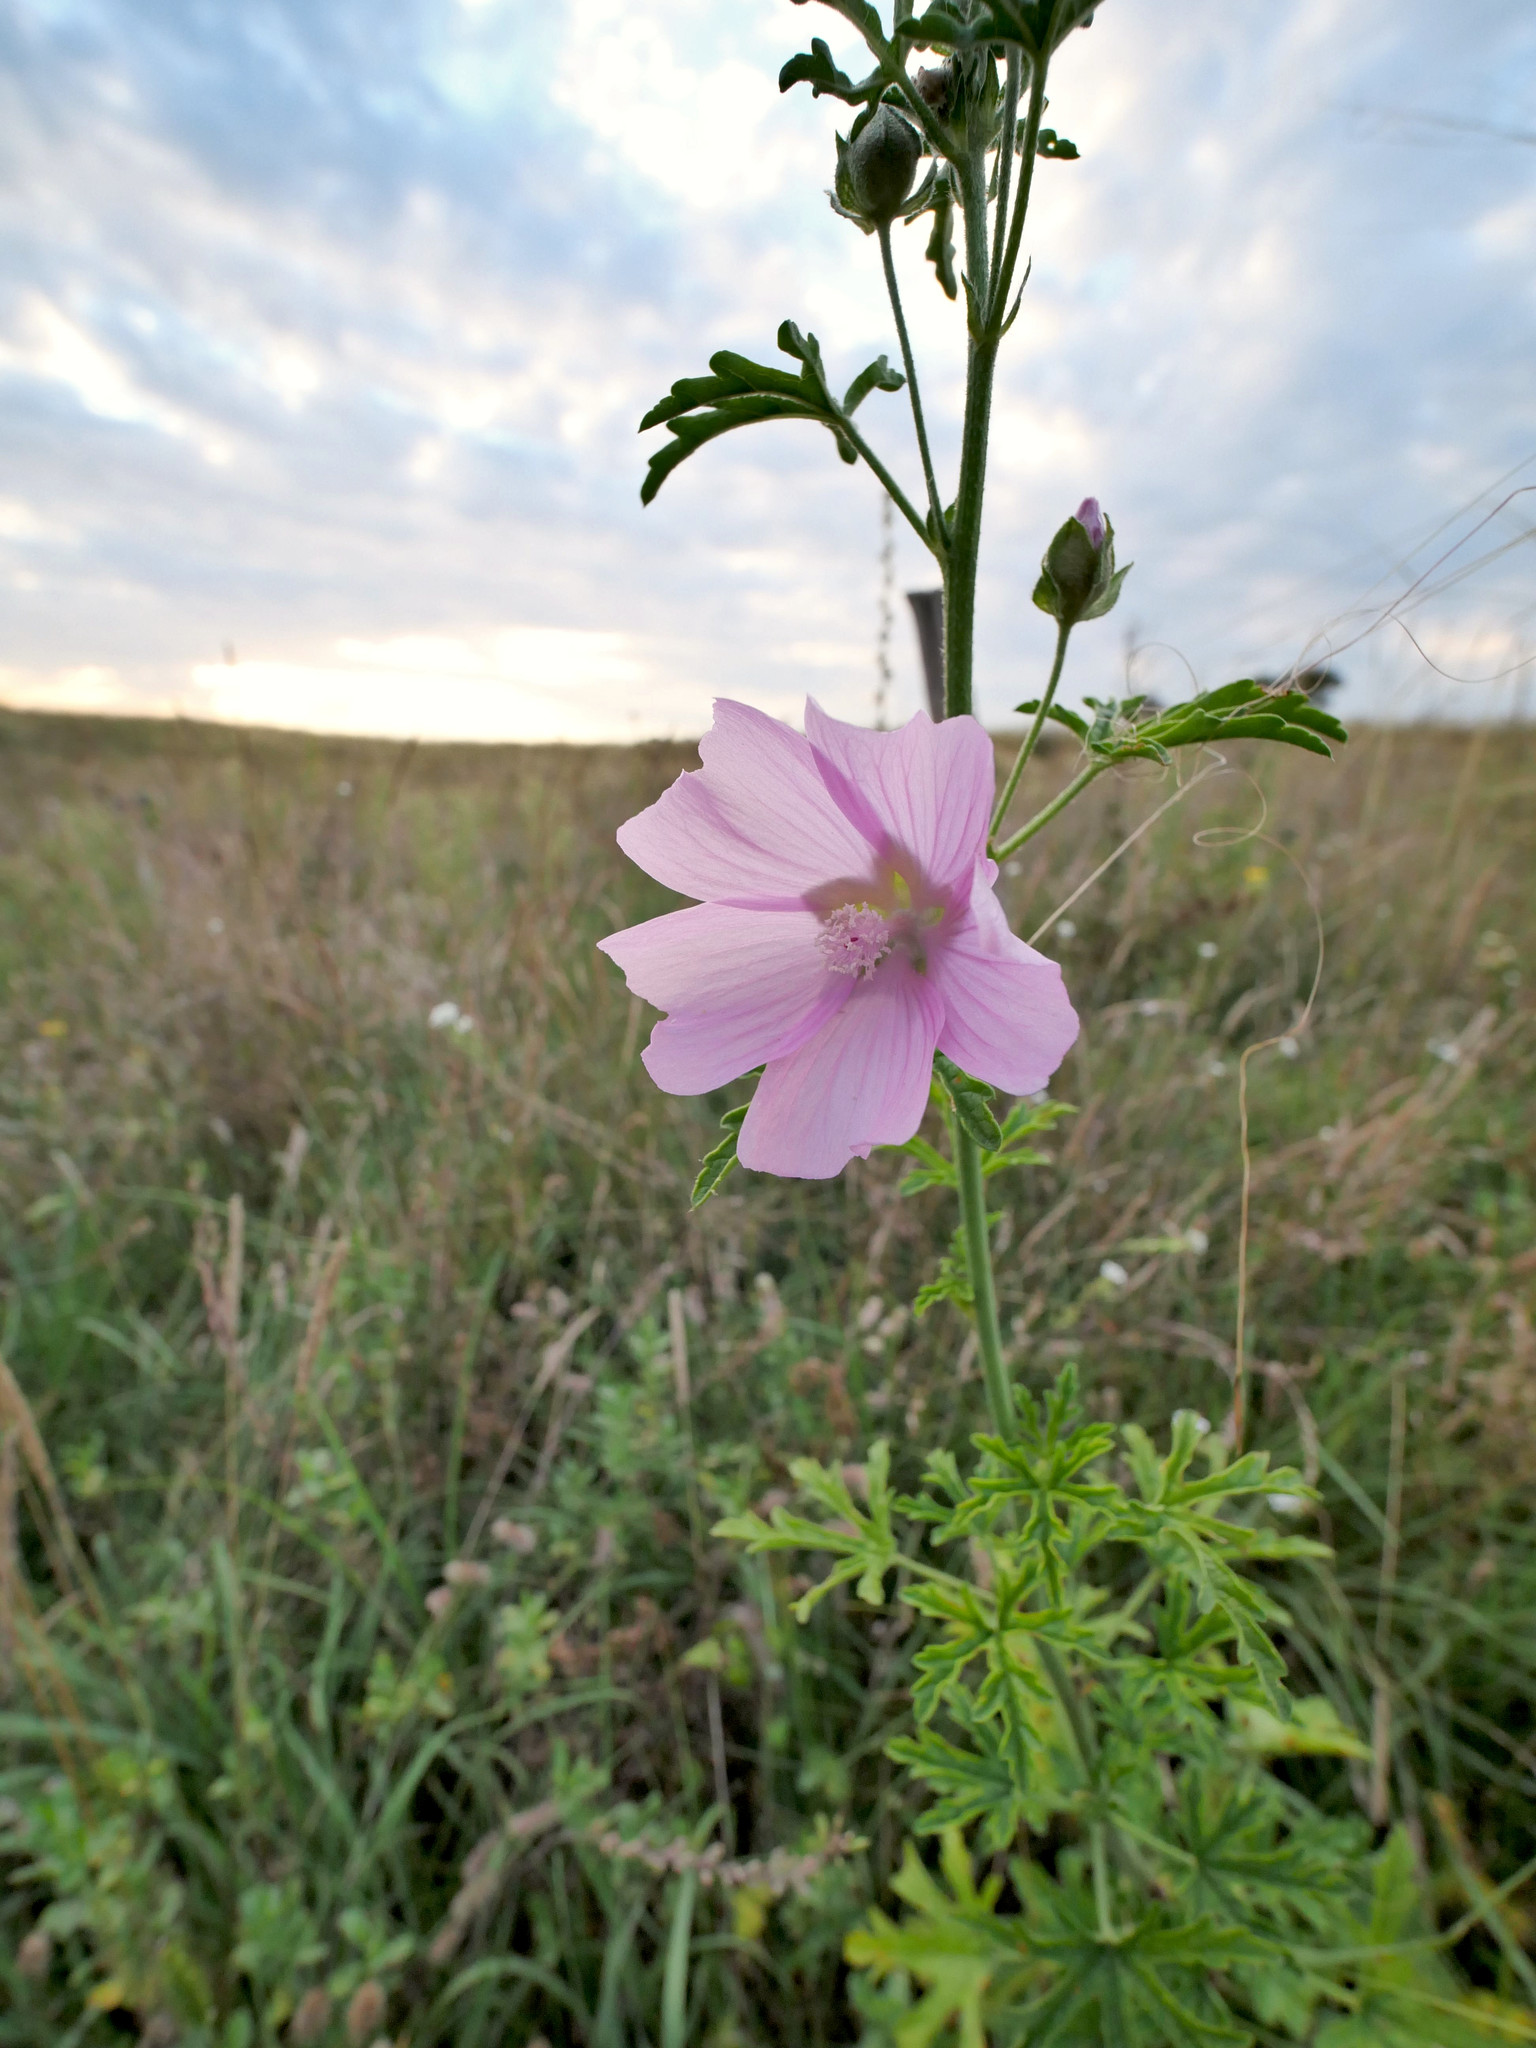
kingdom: Plantae
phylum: Tracheophyta
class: Magnoliopsida
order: Malvales
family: Malvaceae
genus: Malva
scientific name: Malva alcea
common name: Greater musk-mallow
